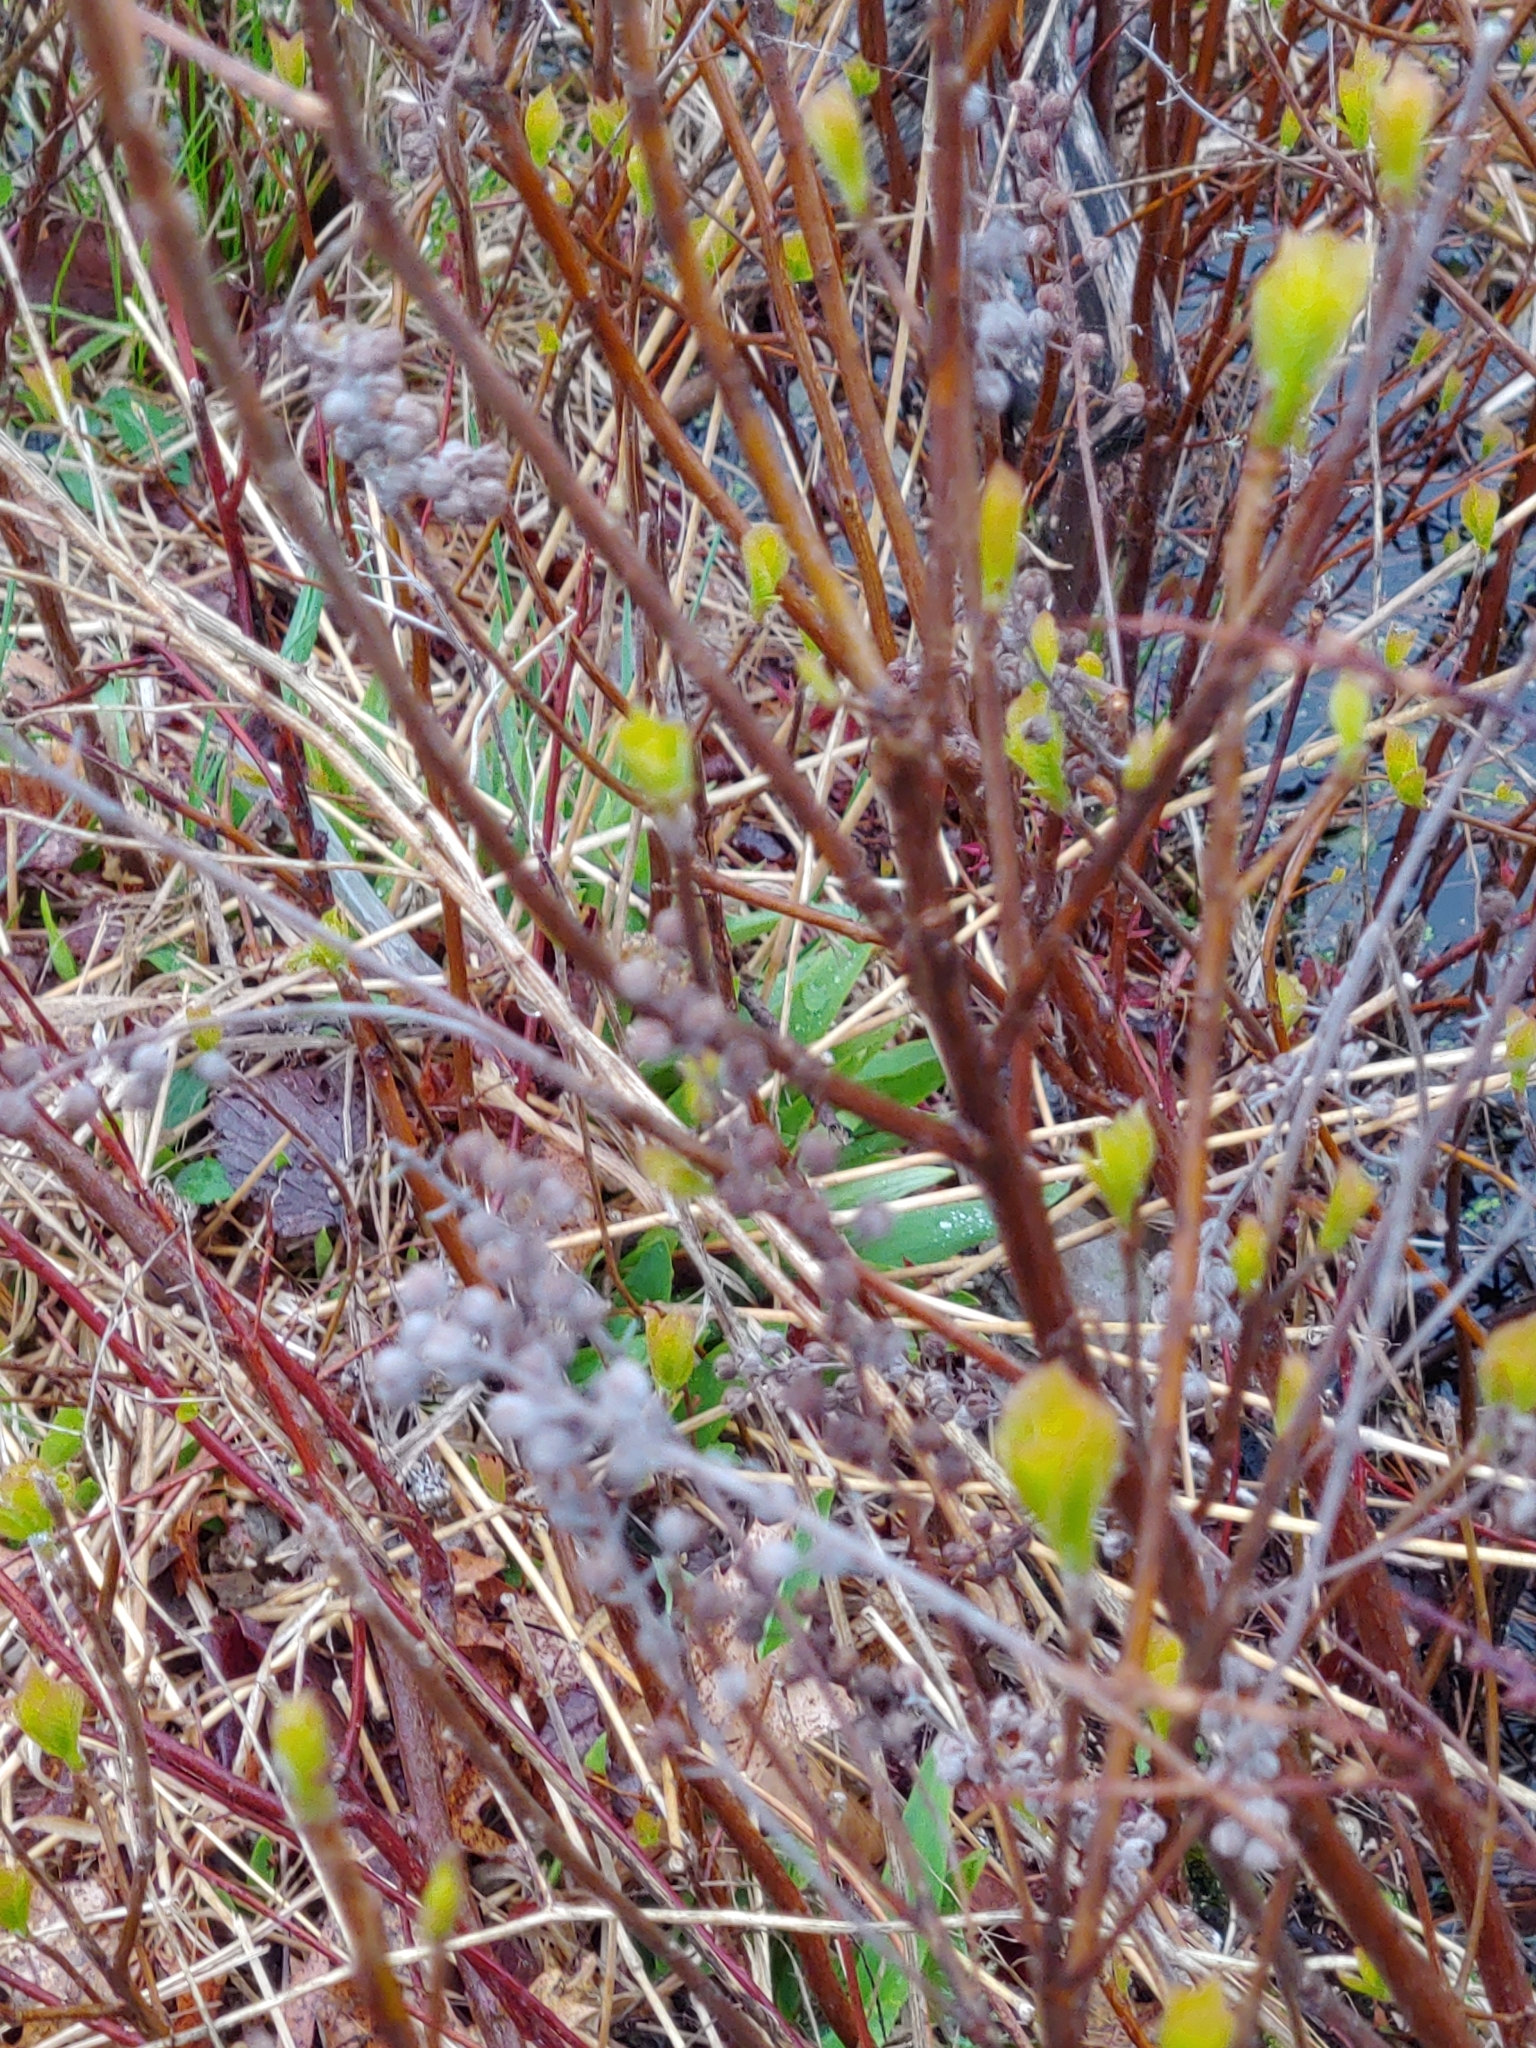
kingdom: Plantae
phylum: Tracheophyta
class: Magnoliopsida
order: Ericales
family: Clethraceae
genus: Clethra
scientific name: Clethra alnifolia
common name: Sweet pepperbush
